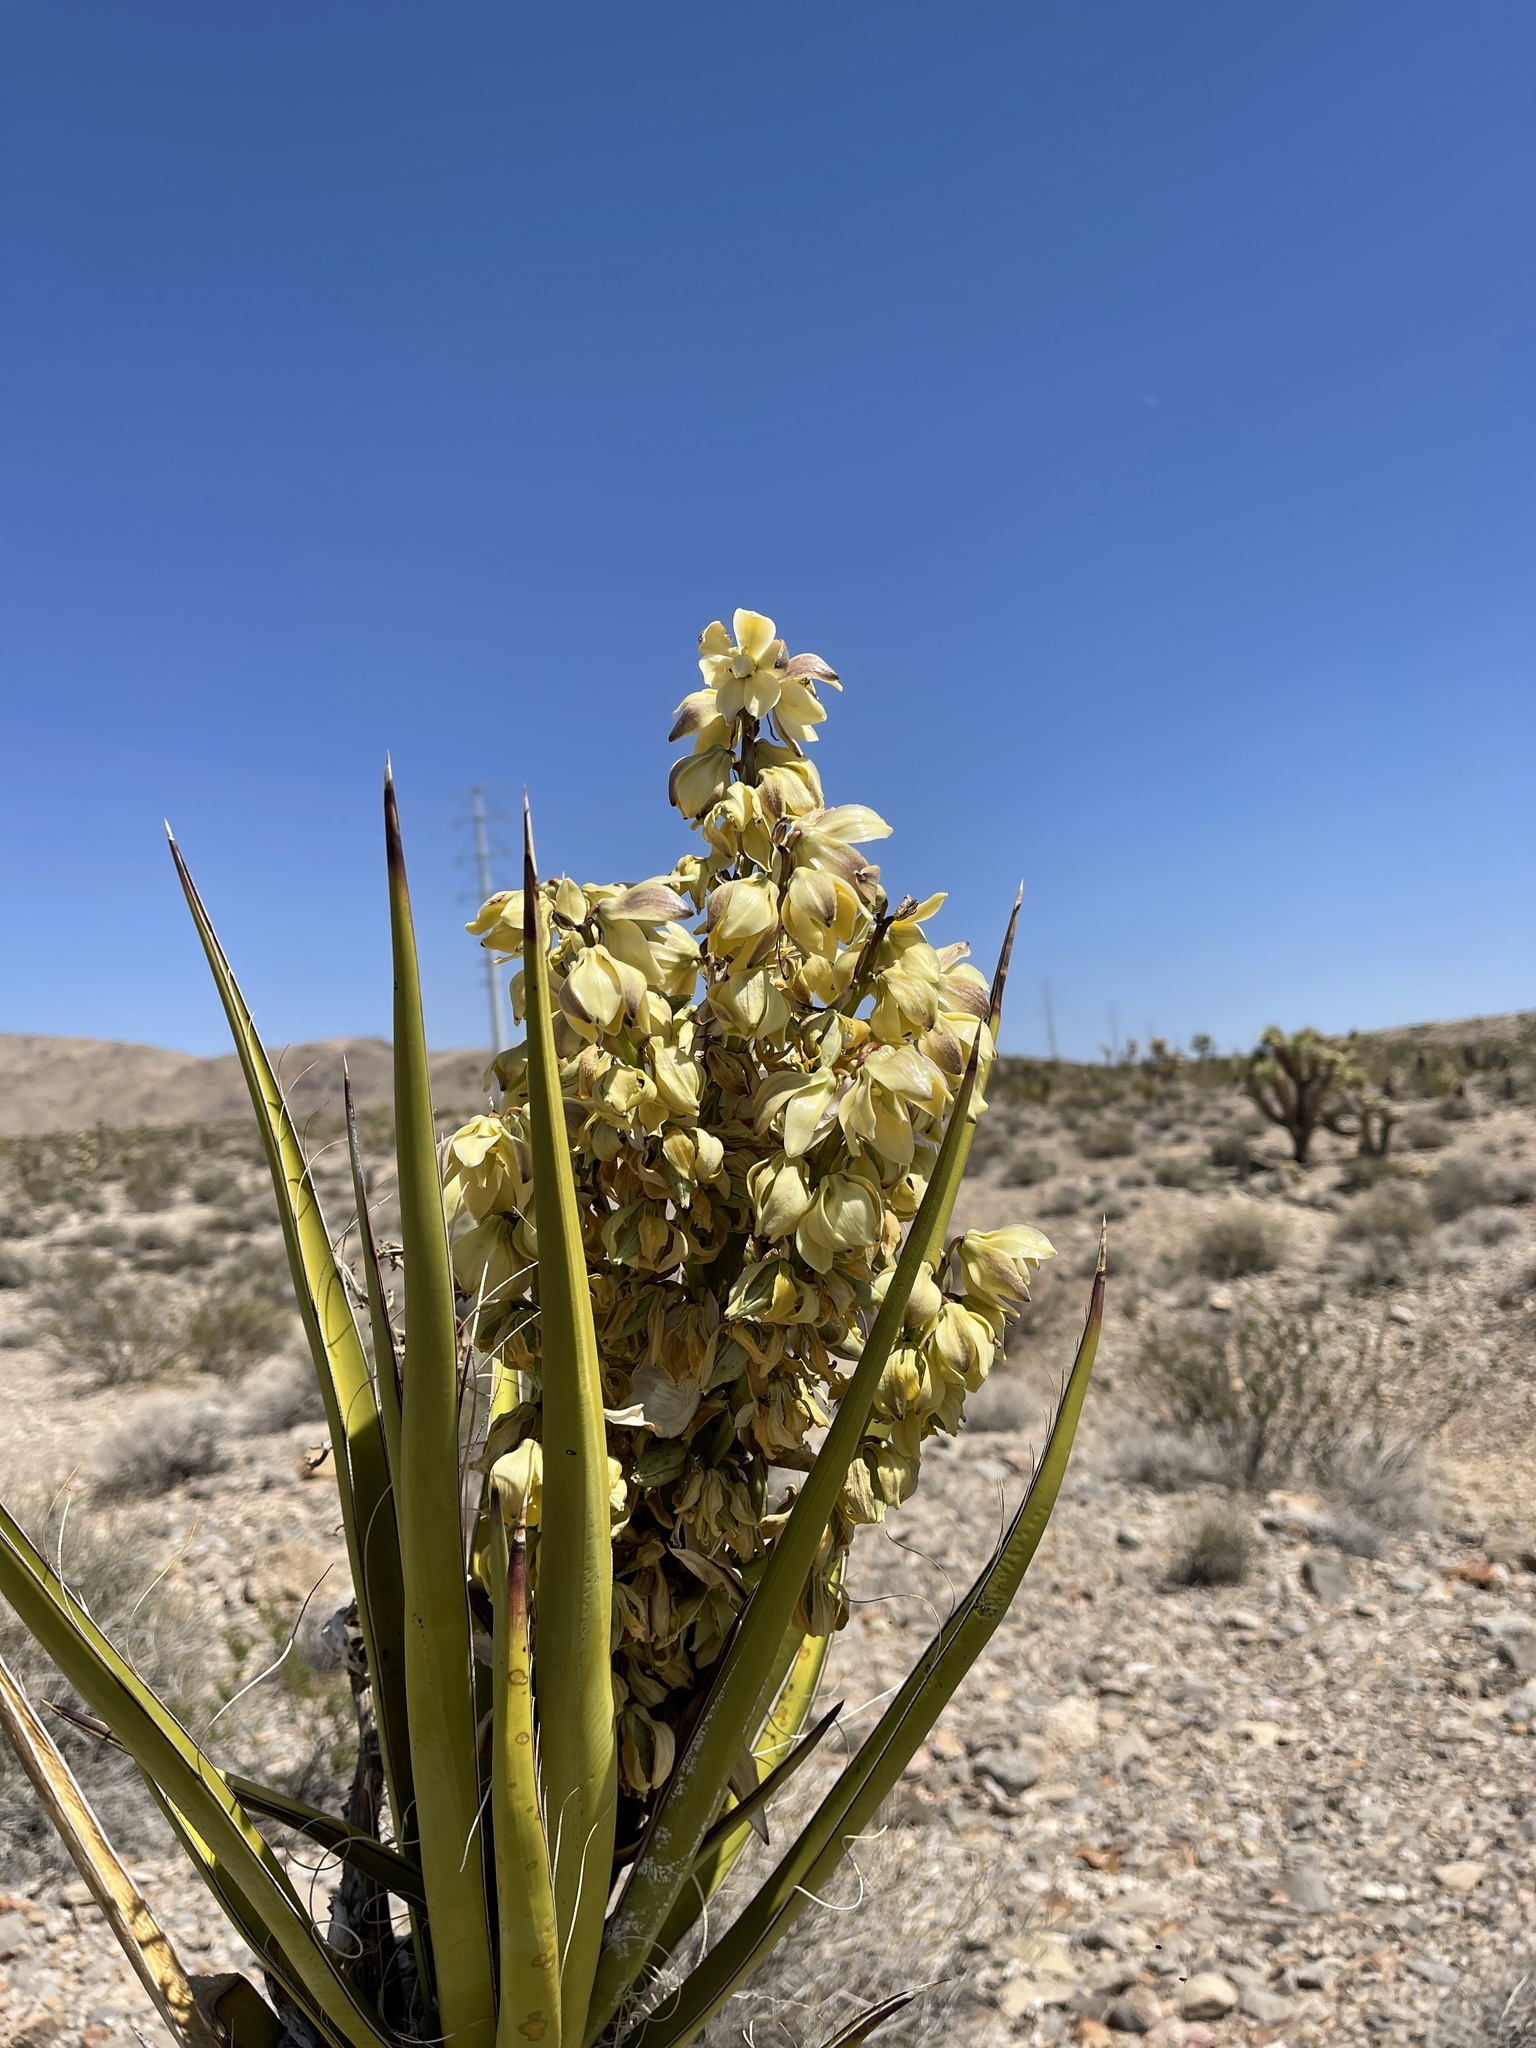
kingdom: Plantae
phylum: Tracheophyta
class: Liliopsida
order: Asparagales
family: Asparagaceae
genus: Yucca
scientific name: Yucca schidigera
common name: Mojave yucca
